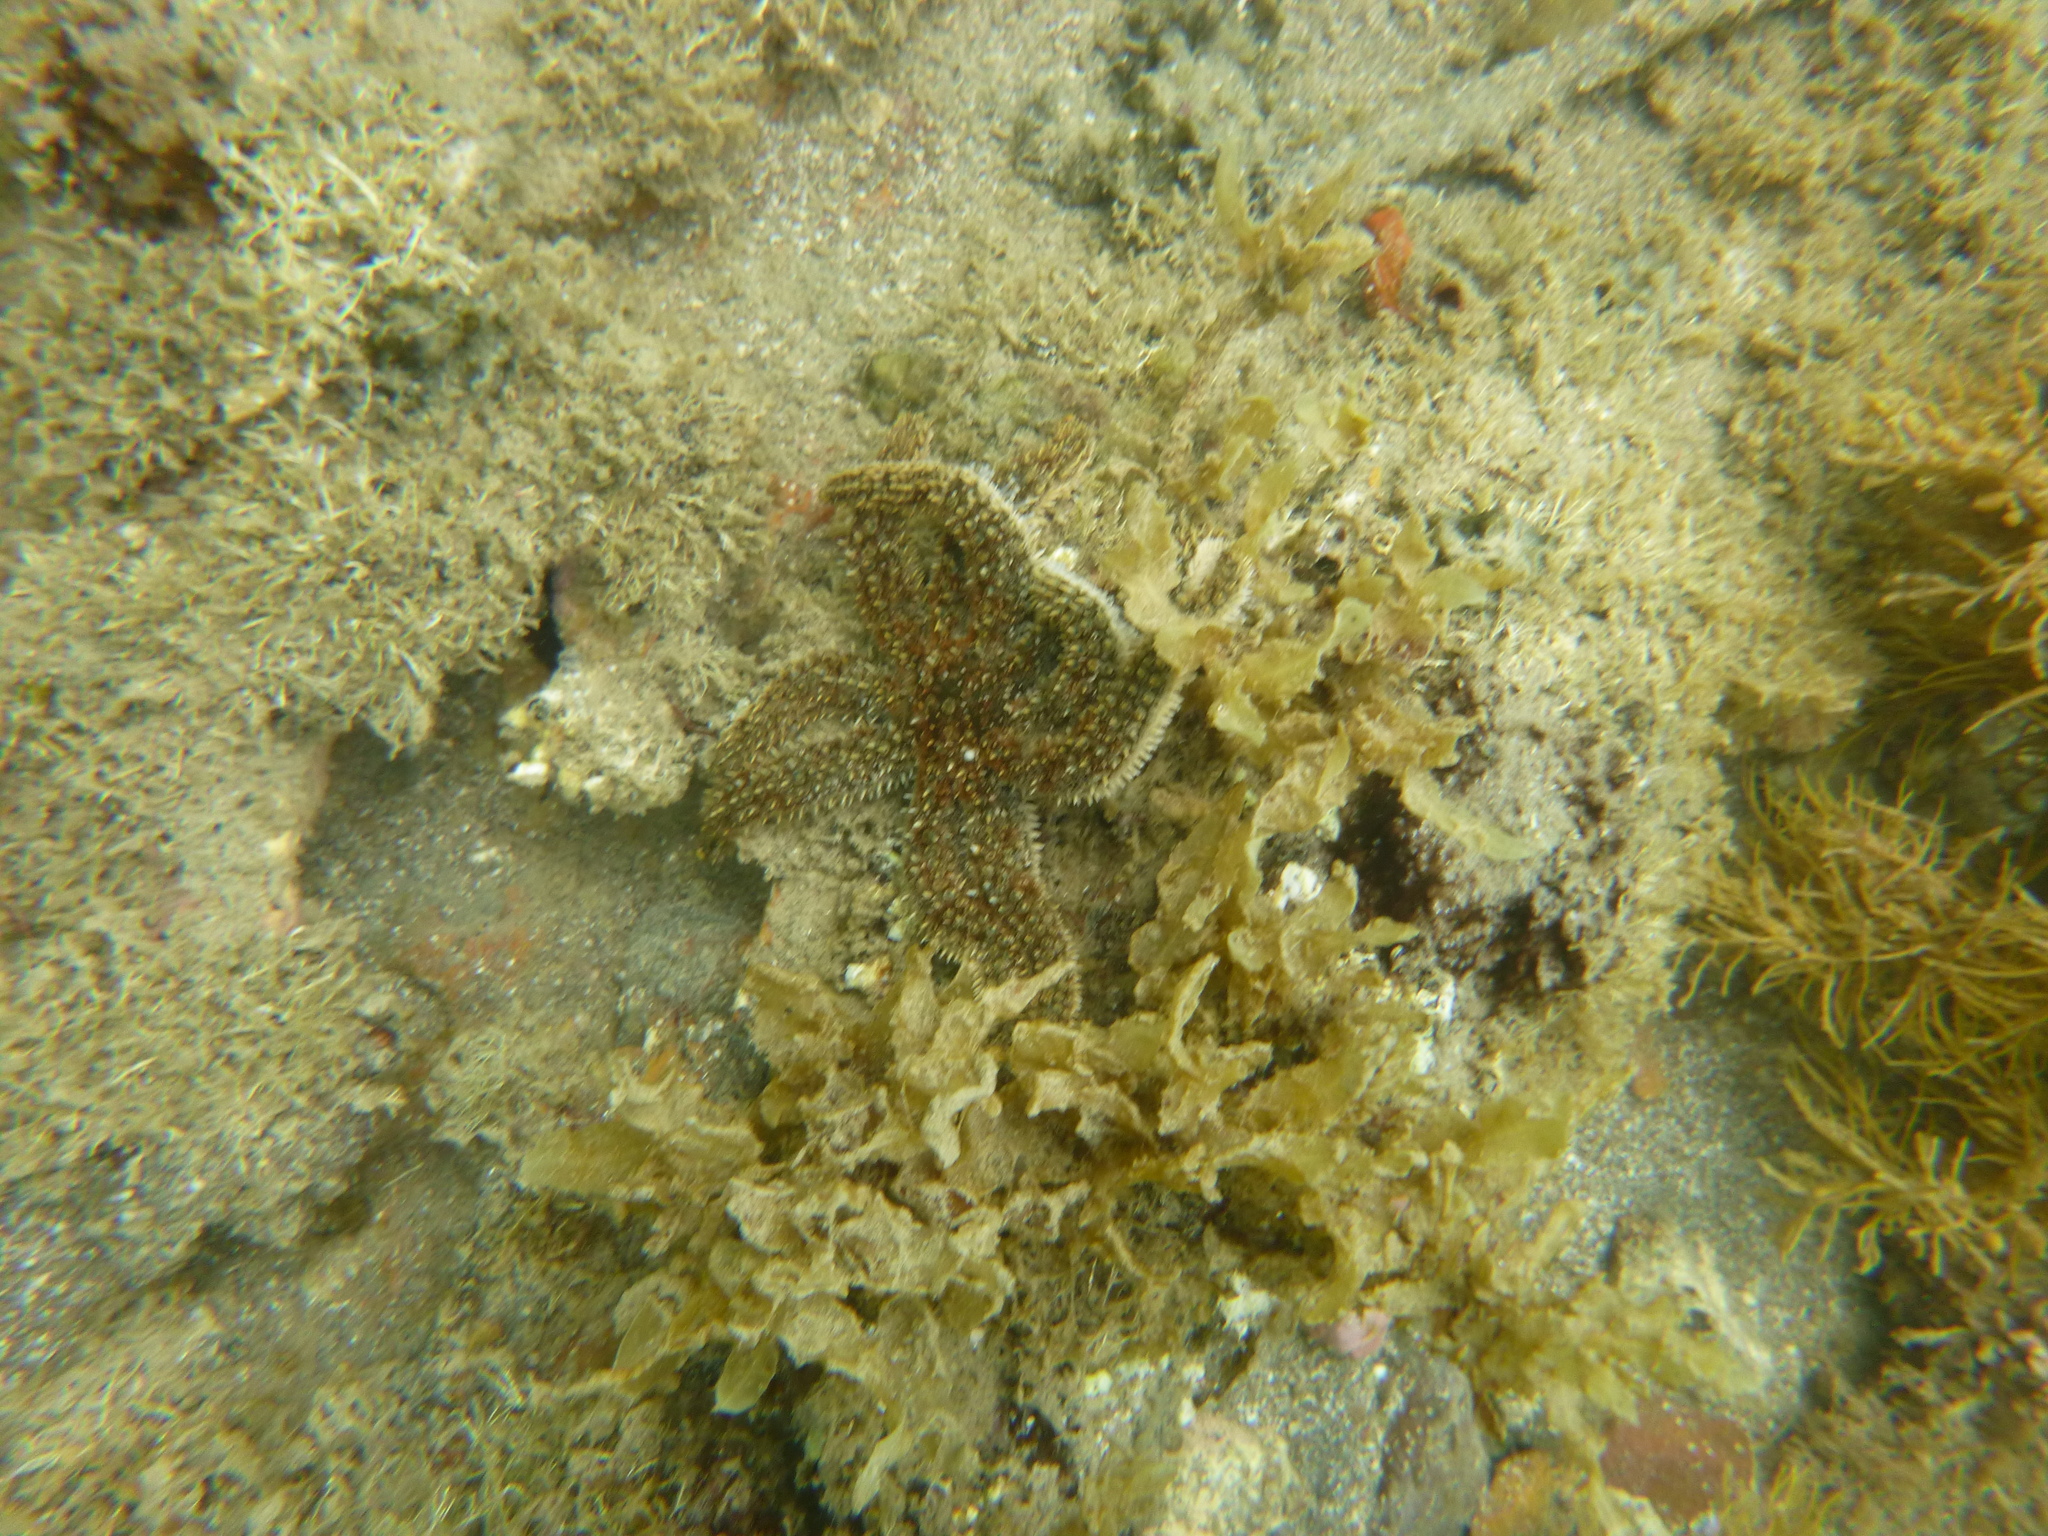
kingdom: Animalia
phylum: Echinodermata
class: Asteroidea
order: Forcipulatida
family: Asteriidae
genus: Coscinasterias
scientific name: Coscinasterias muricata
